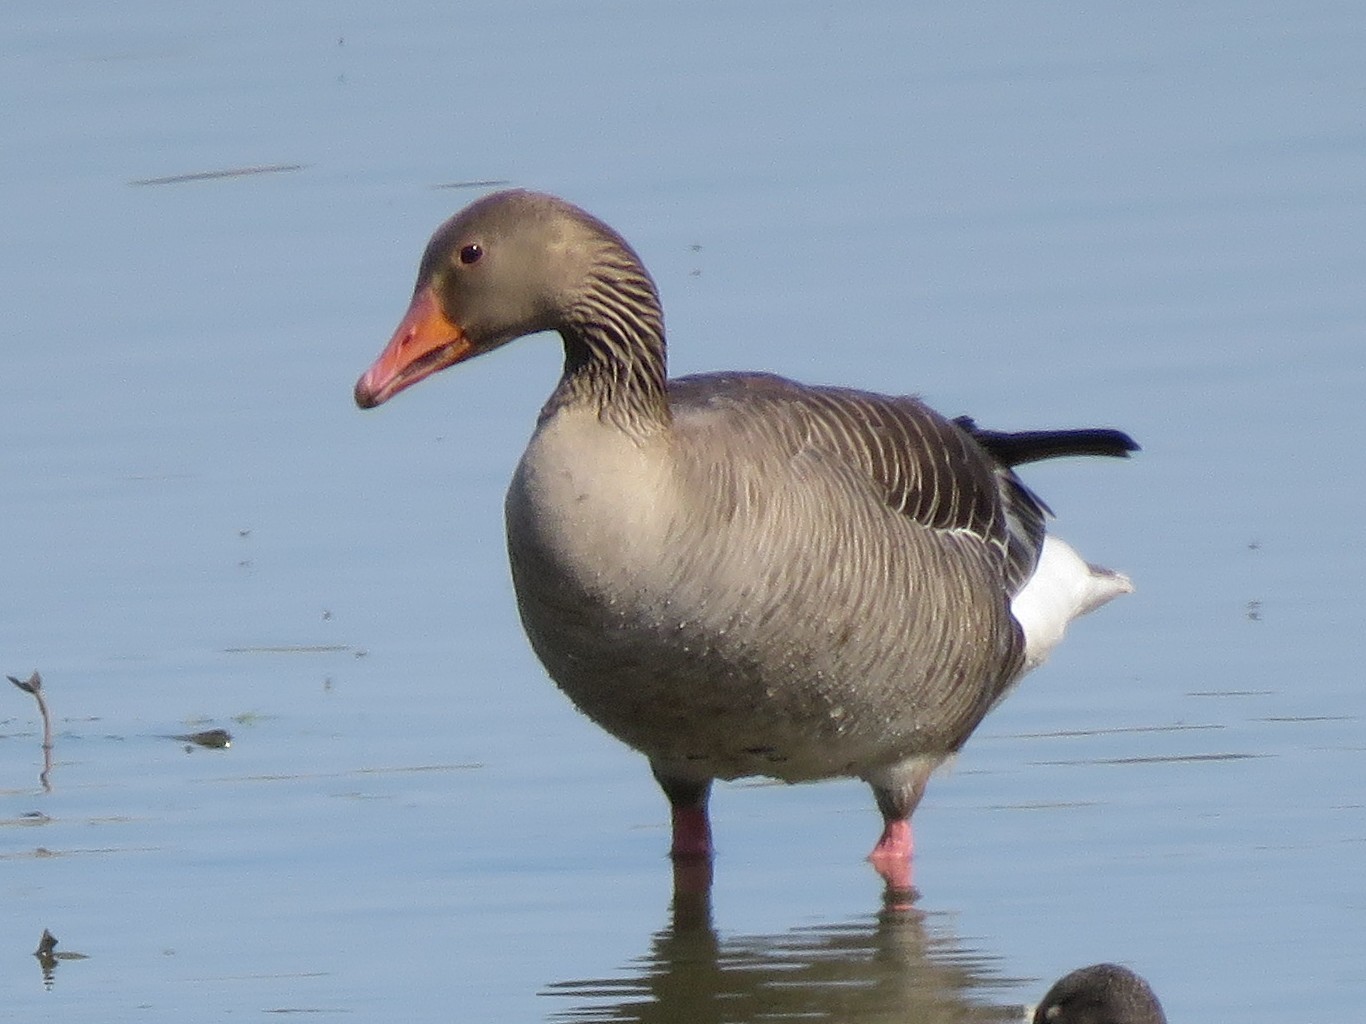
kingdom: Animalia
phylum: Chordata
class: Aves
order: Anseriformes
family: Anatidae
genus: Anser
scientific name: Anser anser
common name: Greylag goose
